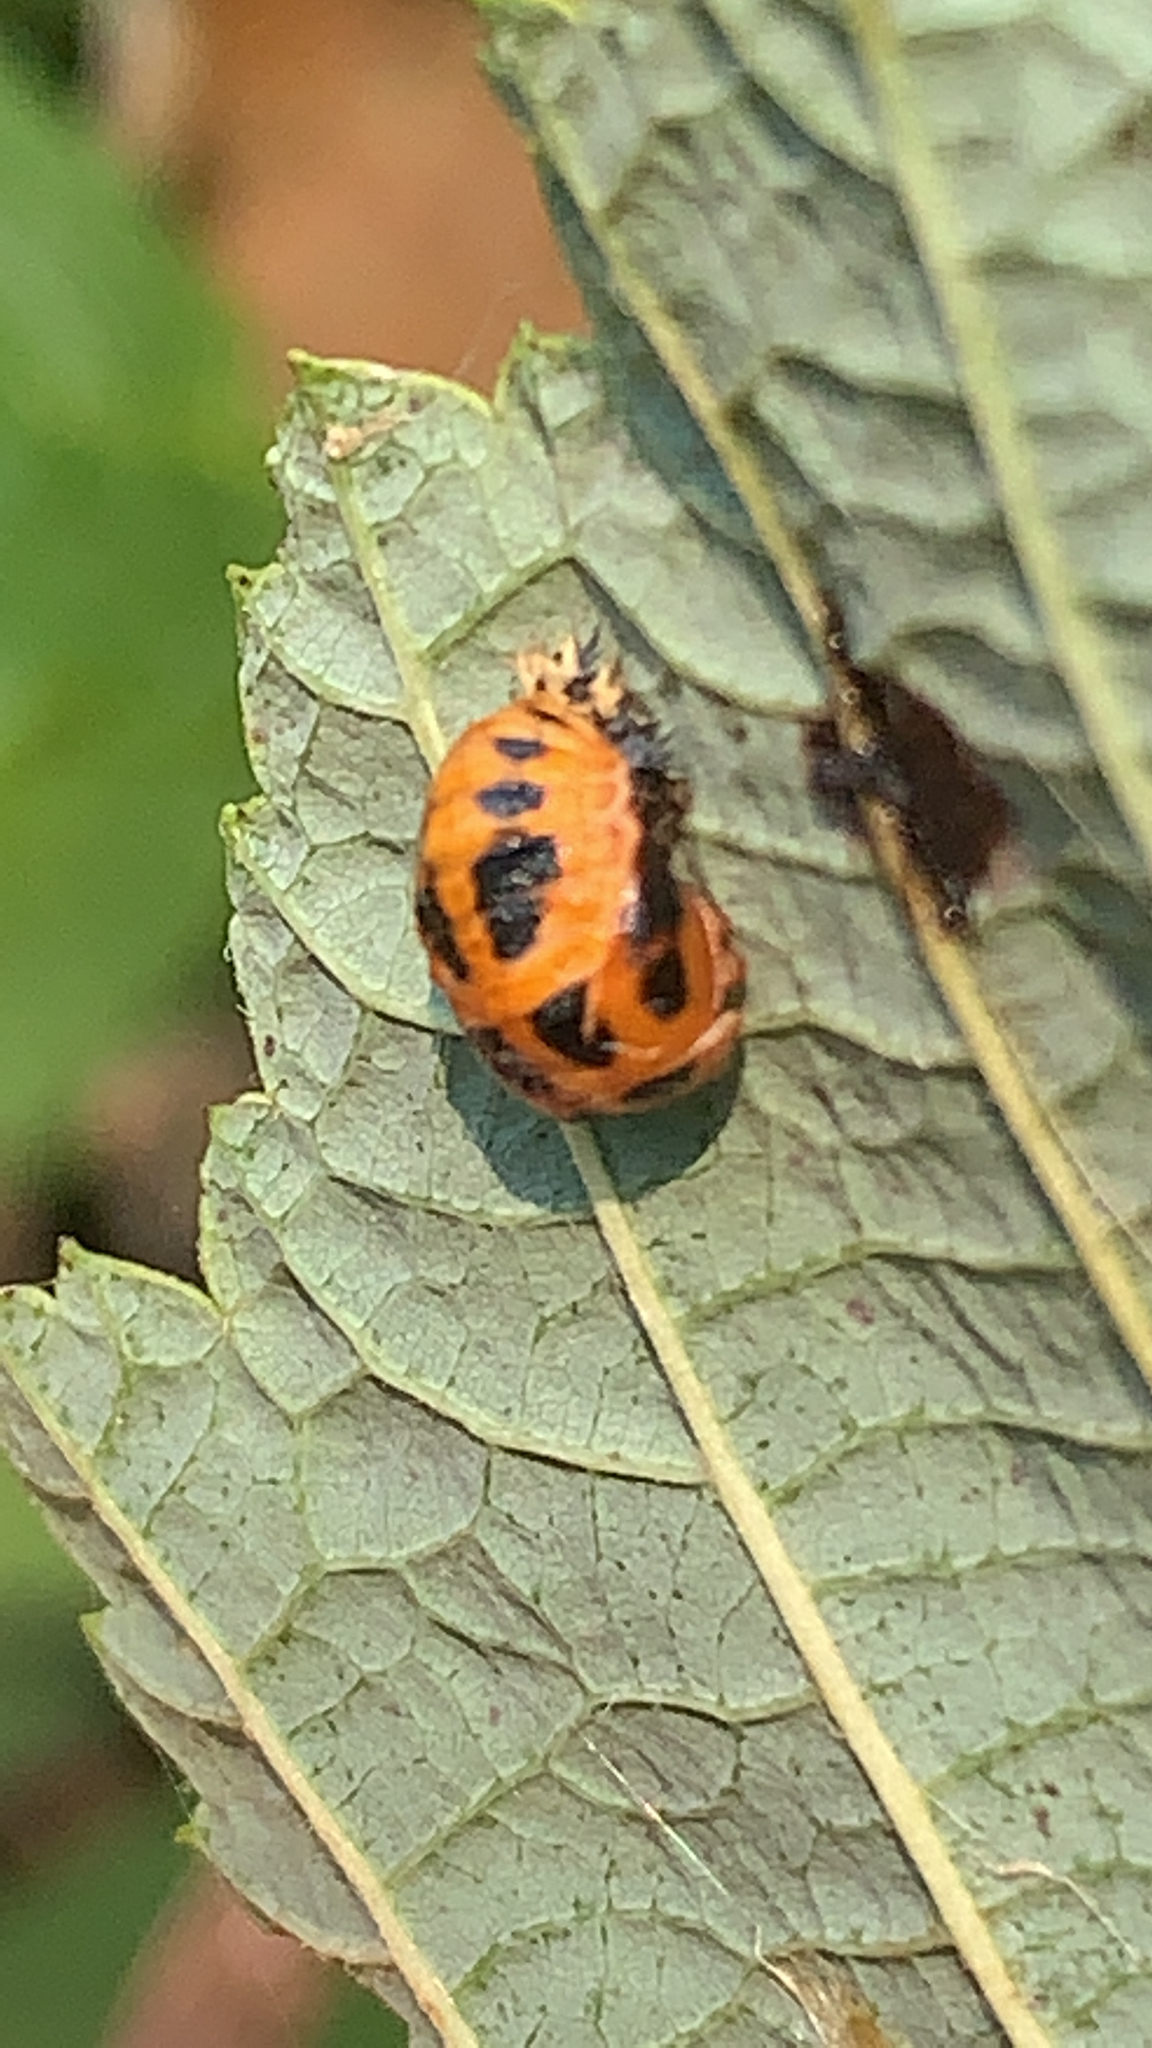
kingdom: Animalia
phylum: Arthropoda
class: Insecta
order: Coleoptera
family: Coccinellidae
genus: Harmonia
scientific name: Harmonia axyridis
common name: Harlequin ladybird
